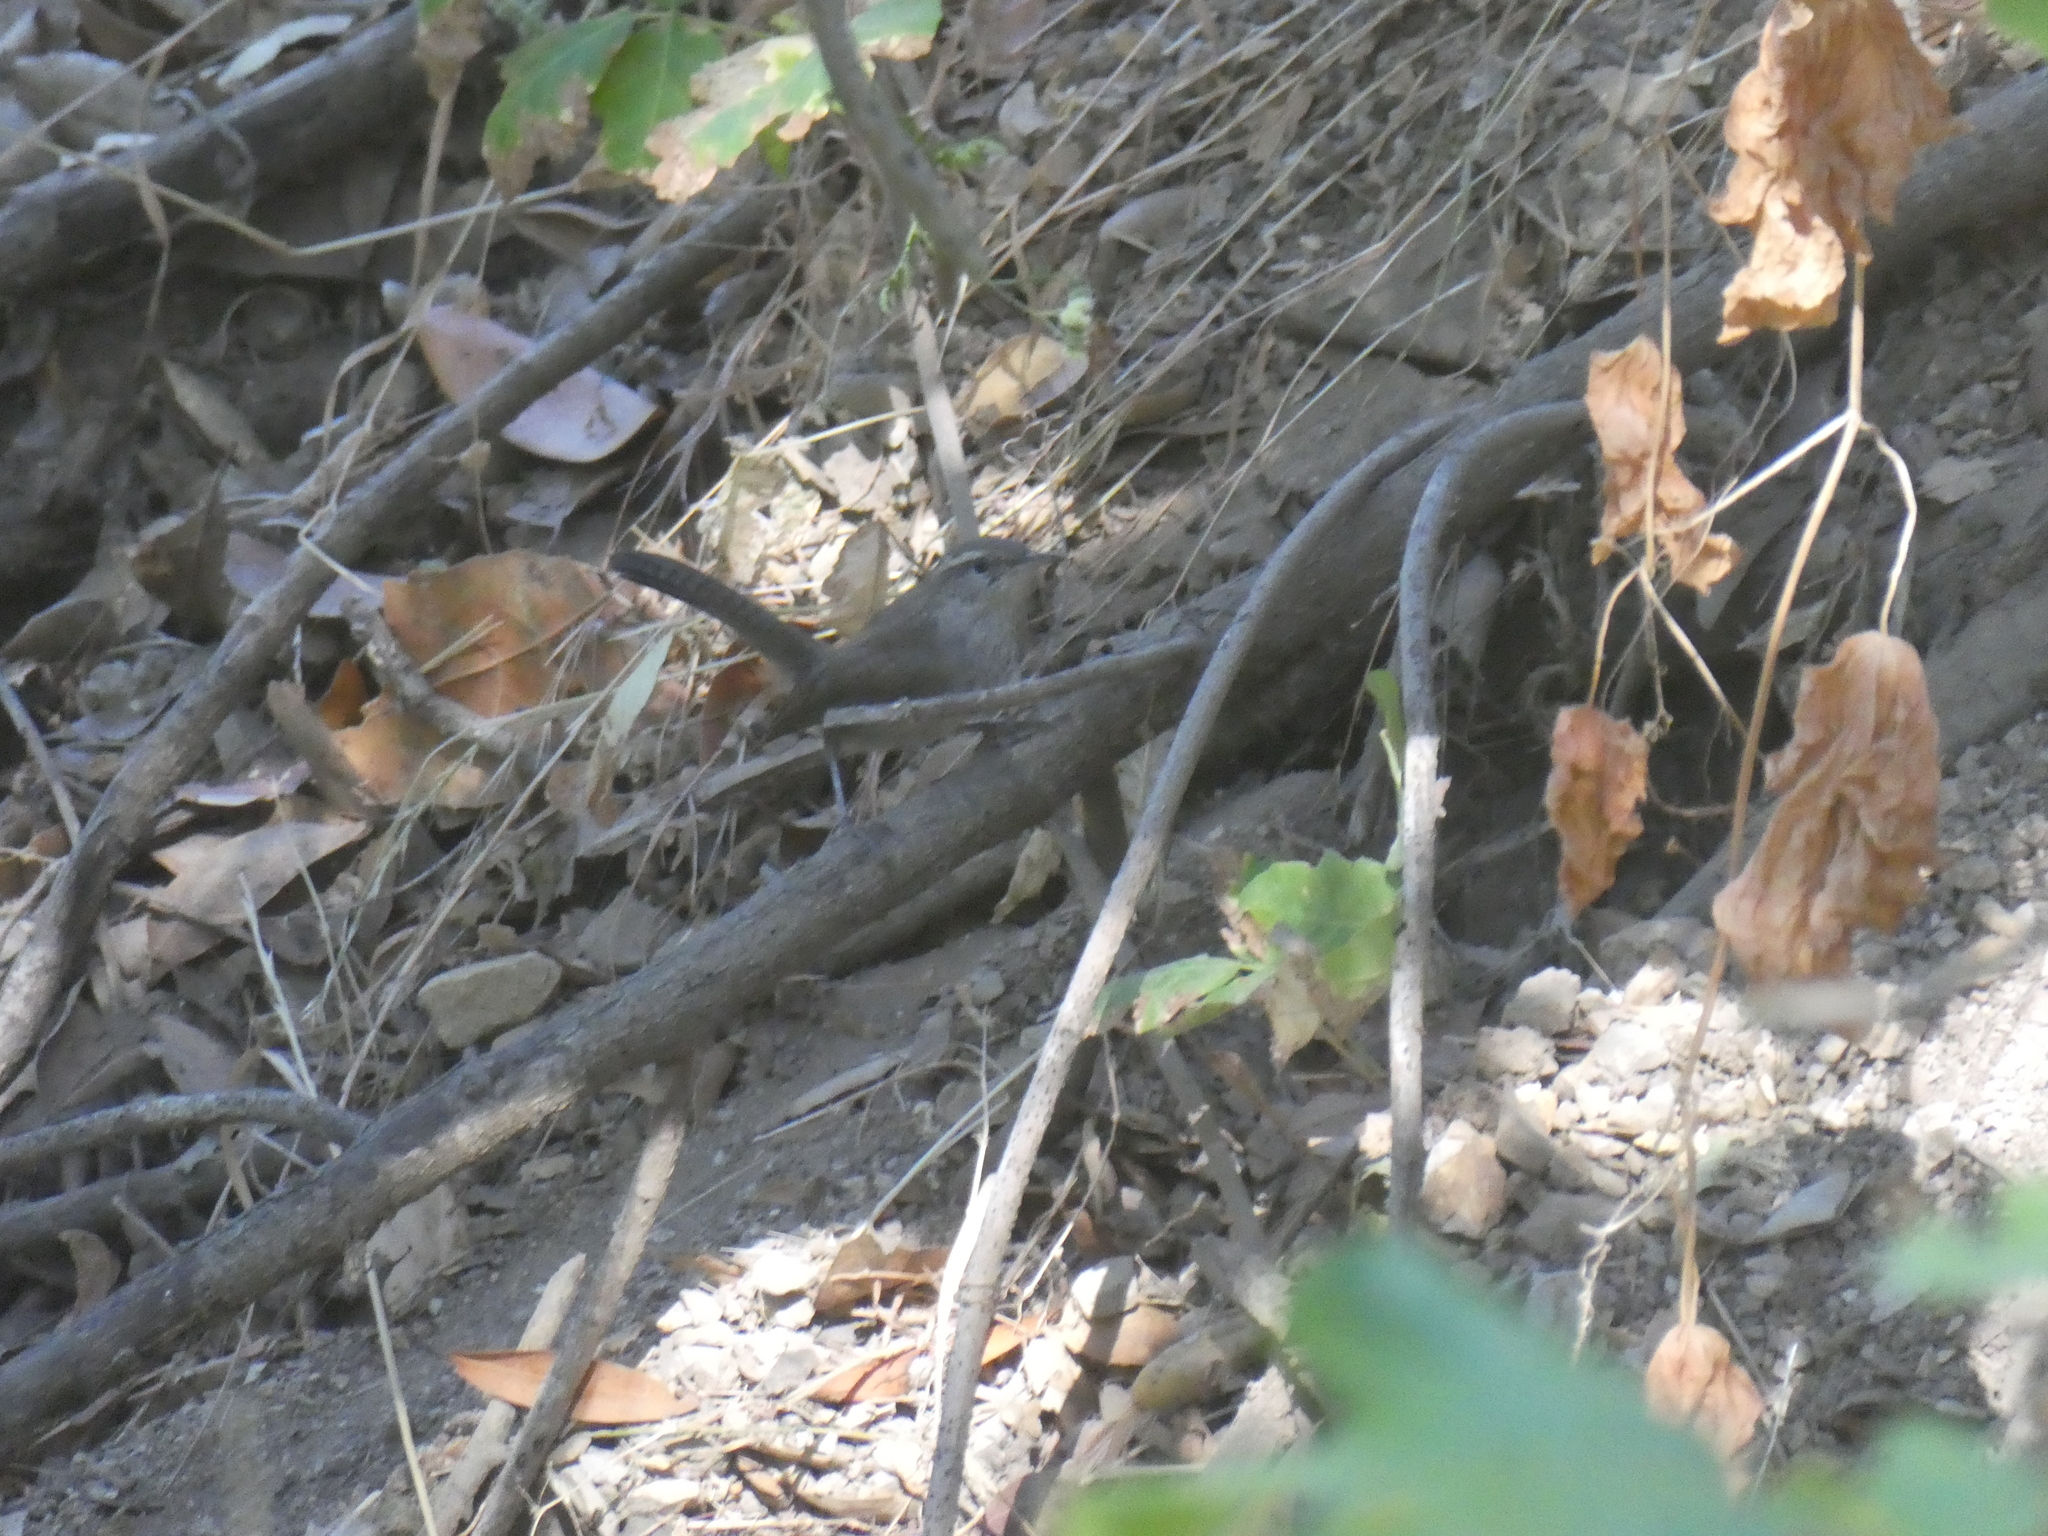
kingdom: Animalia
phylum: Chordata
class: Aves
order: Passeriformes
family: Troglodytidae
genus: Thryomanes
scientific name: Thryomanes bewickii
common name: Bewick's wren
